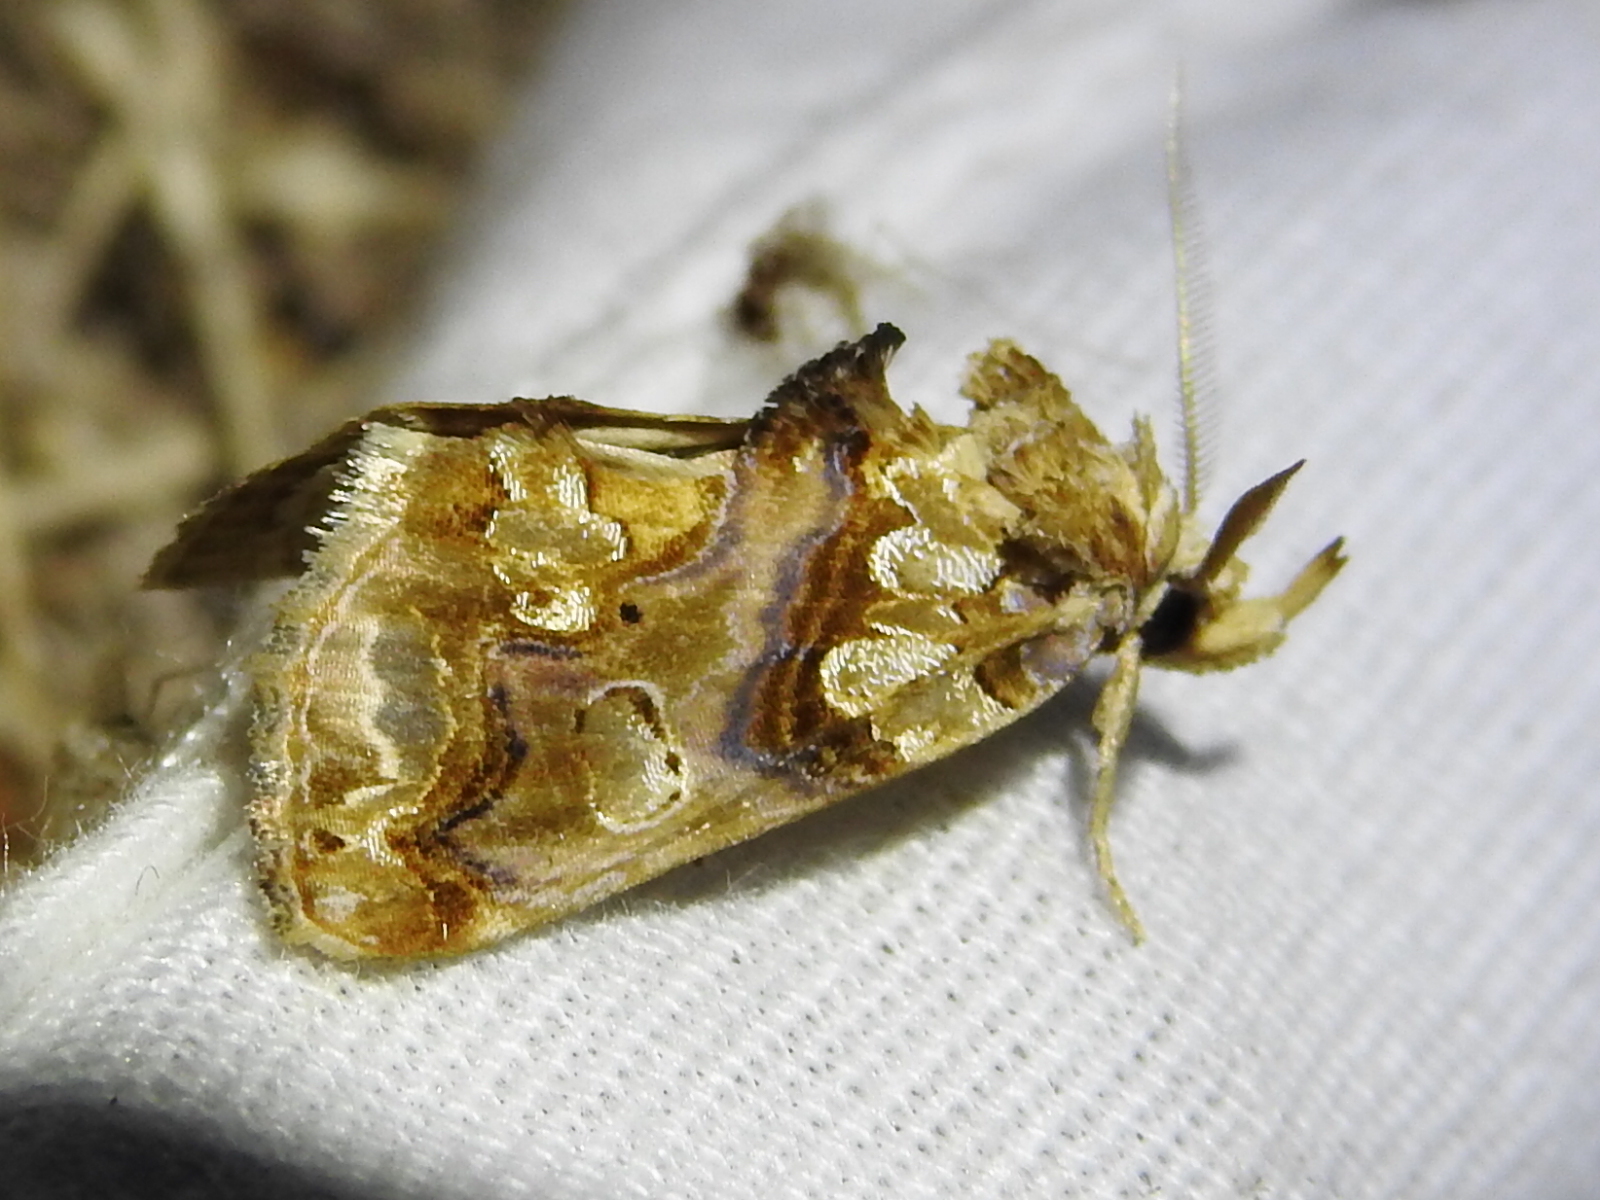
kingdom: Animalia
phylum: Arthropoda
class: Insecta
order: Lepidoptera
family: Erebidae
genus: Plusiodonta
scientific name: Plusiodonta compressipalpis
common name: Moonseed moth
